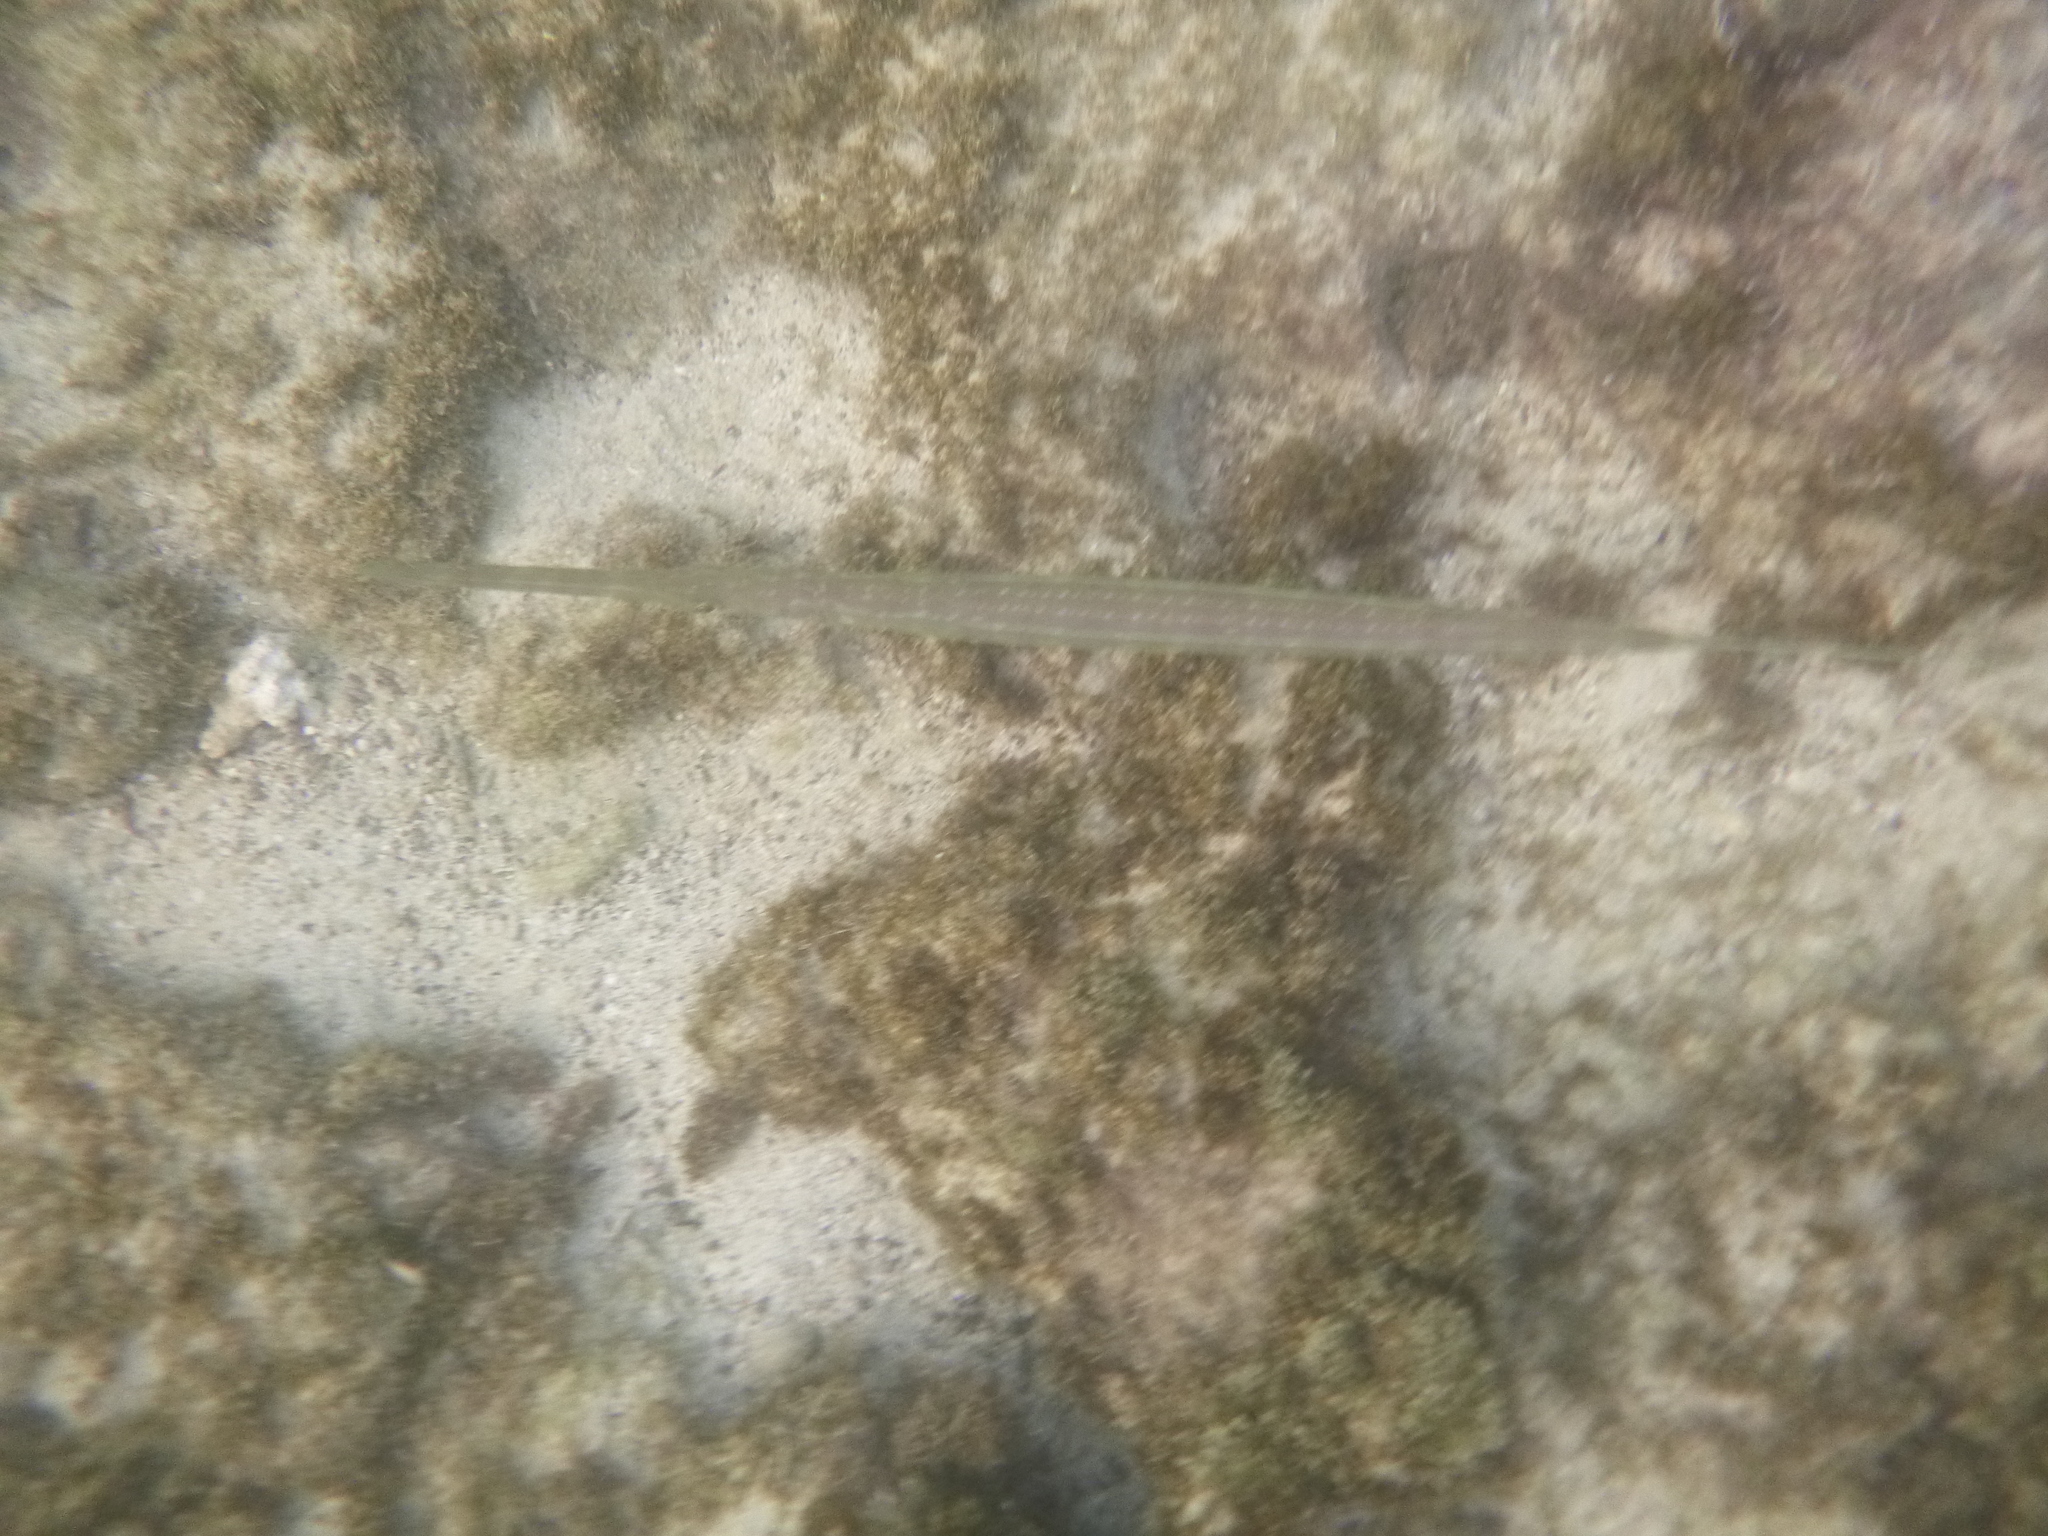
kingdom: Animalia
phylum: Chordata
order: Syngnathiformes
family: Fistulariidae
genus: Fistularia
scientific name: Fistularia commersonii
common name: Bluespotted cornetfish
